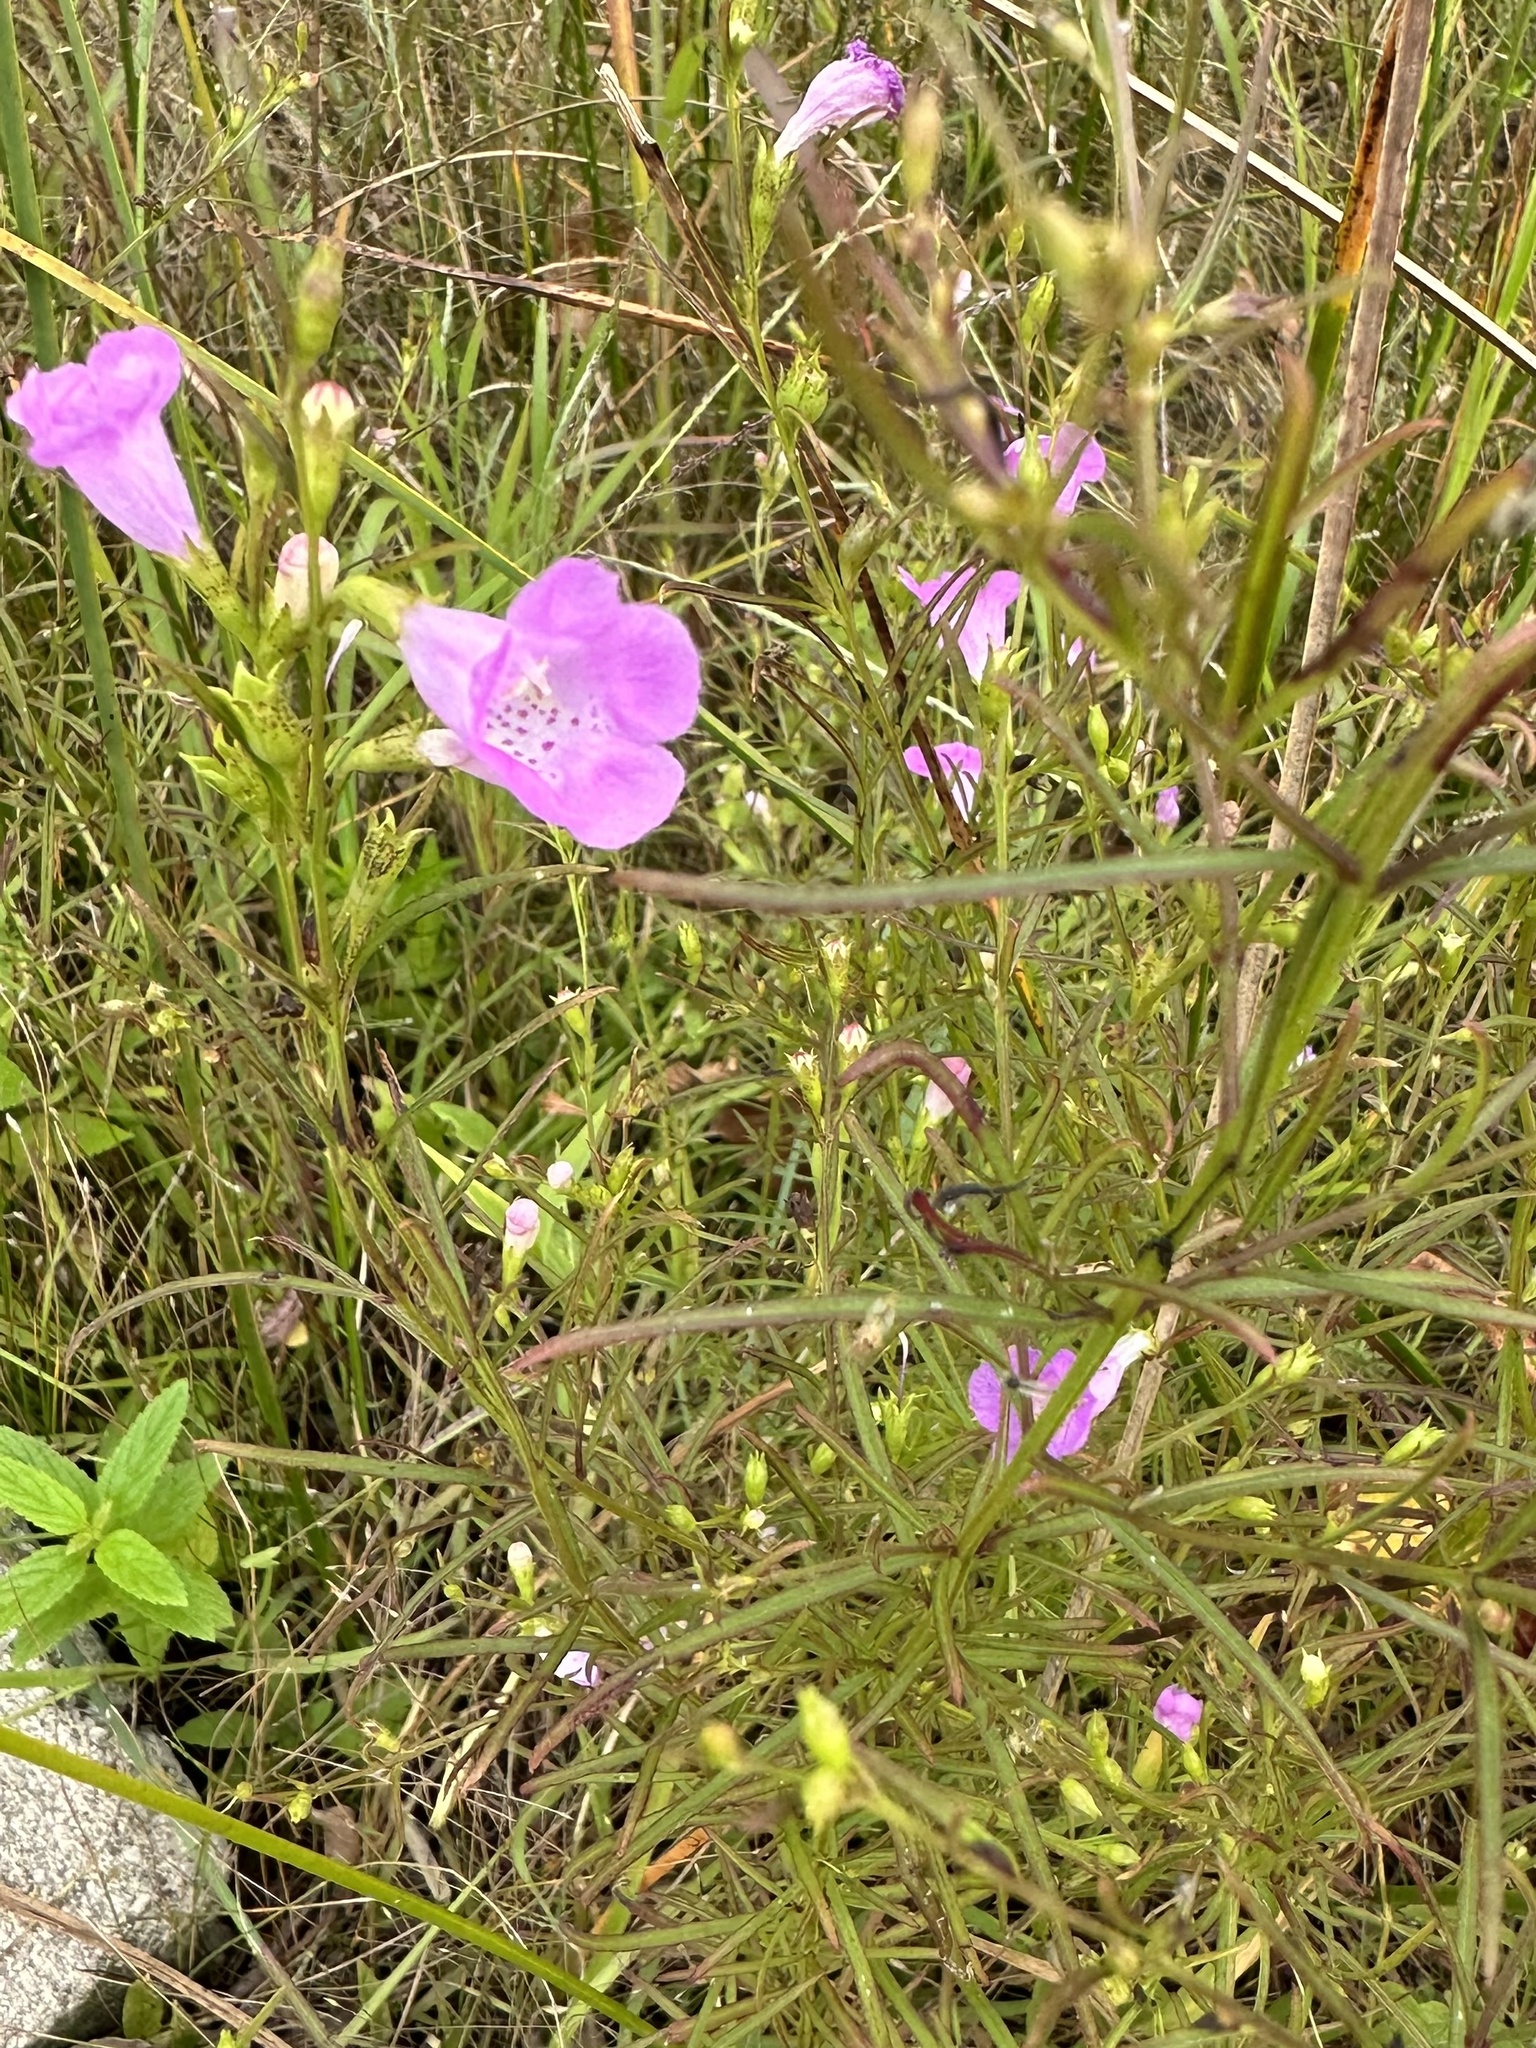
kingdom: Plantae
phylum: Tracheophyta
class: Magnoliopsida
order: Lamiales
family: Orobanchaceae
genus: Agalinis
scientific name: Agalinis purpurea
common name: Purple false foxglove
